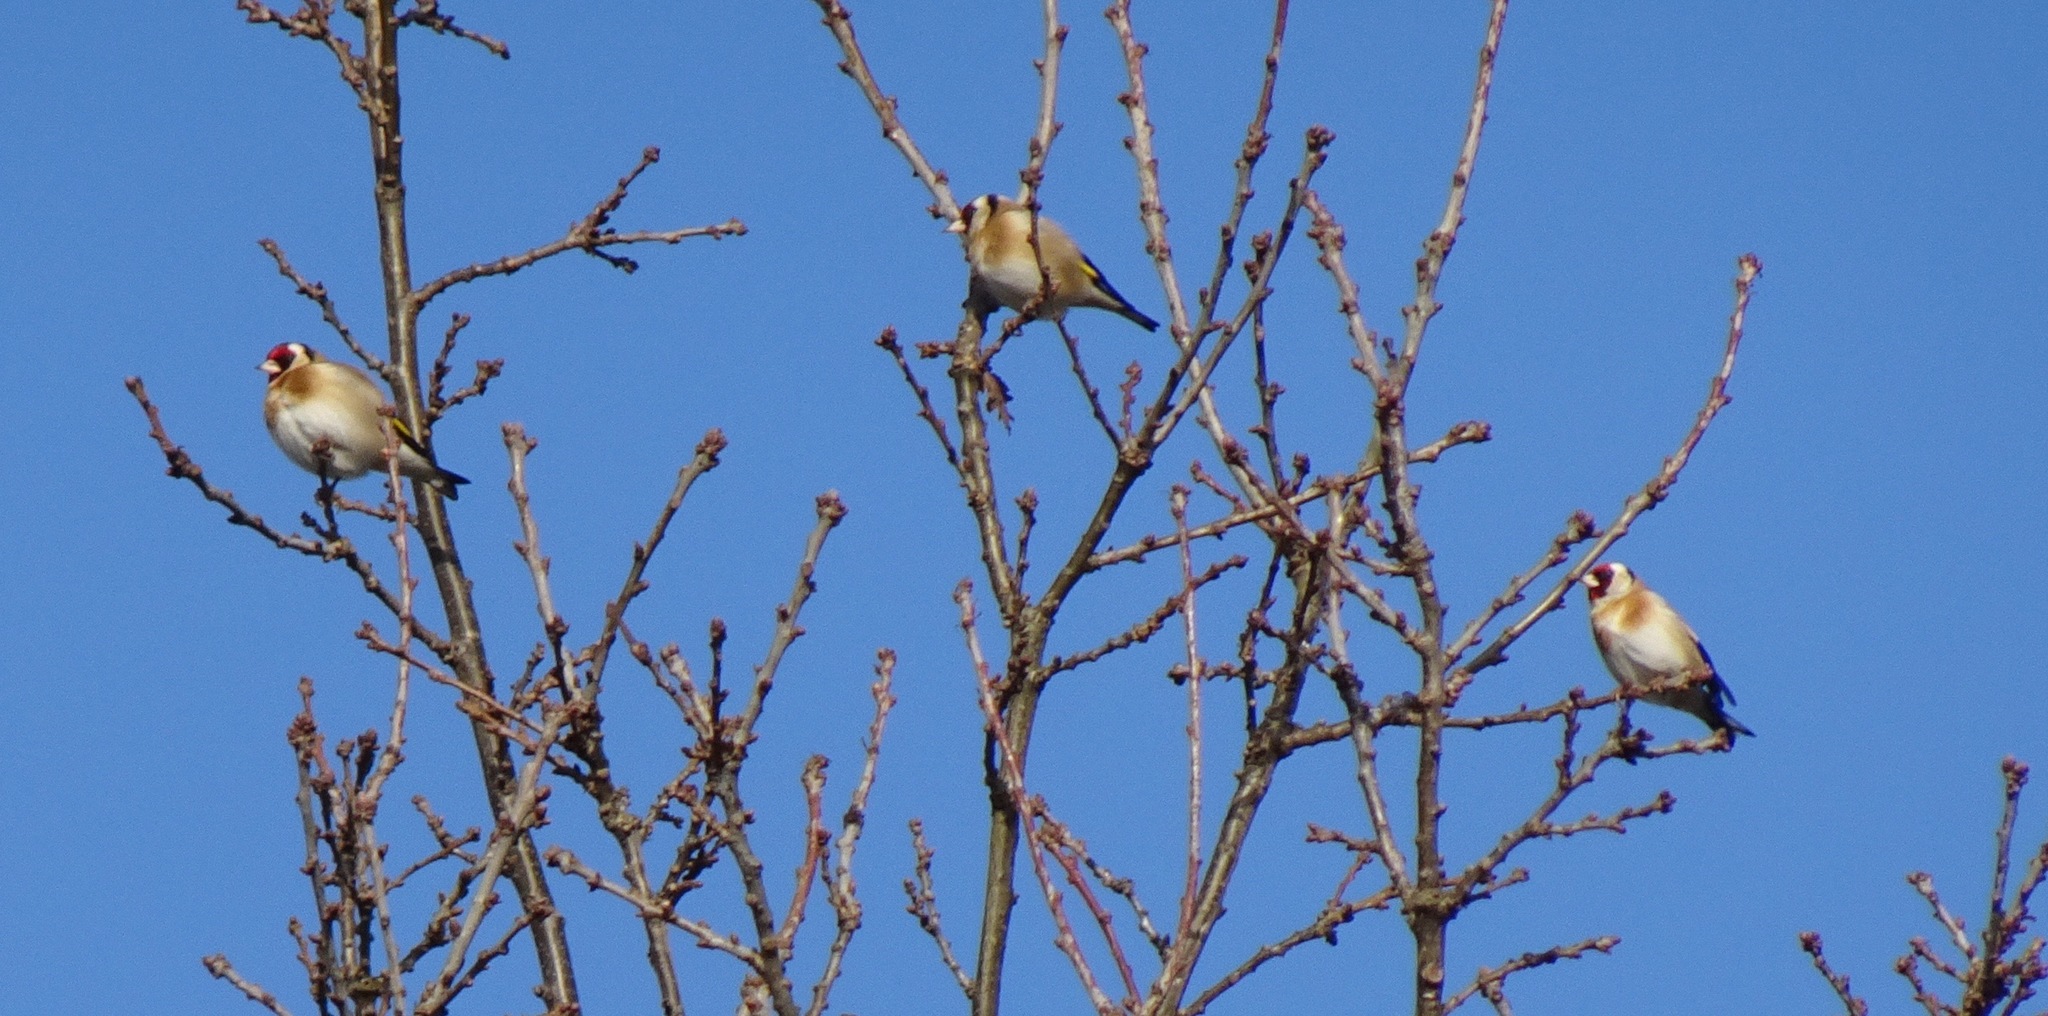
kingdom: Animalia
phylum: Chordata
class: Aves
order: Passeriformes
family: Fringillidae
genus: Carduelis
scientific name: Carduelis carduelis
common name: European goldfinch
